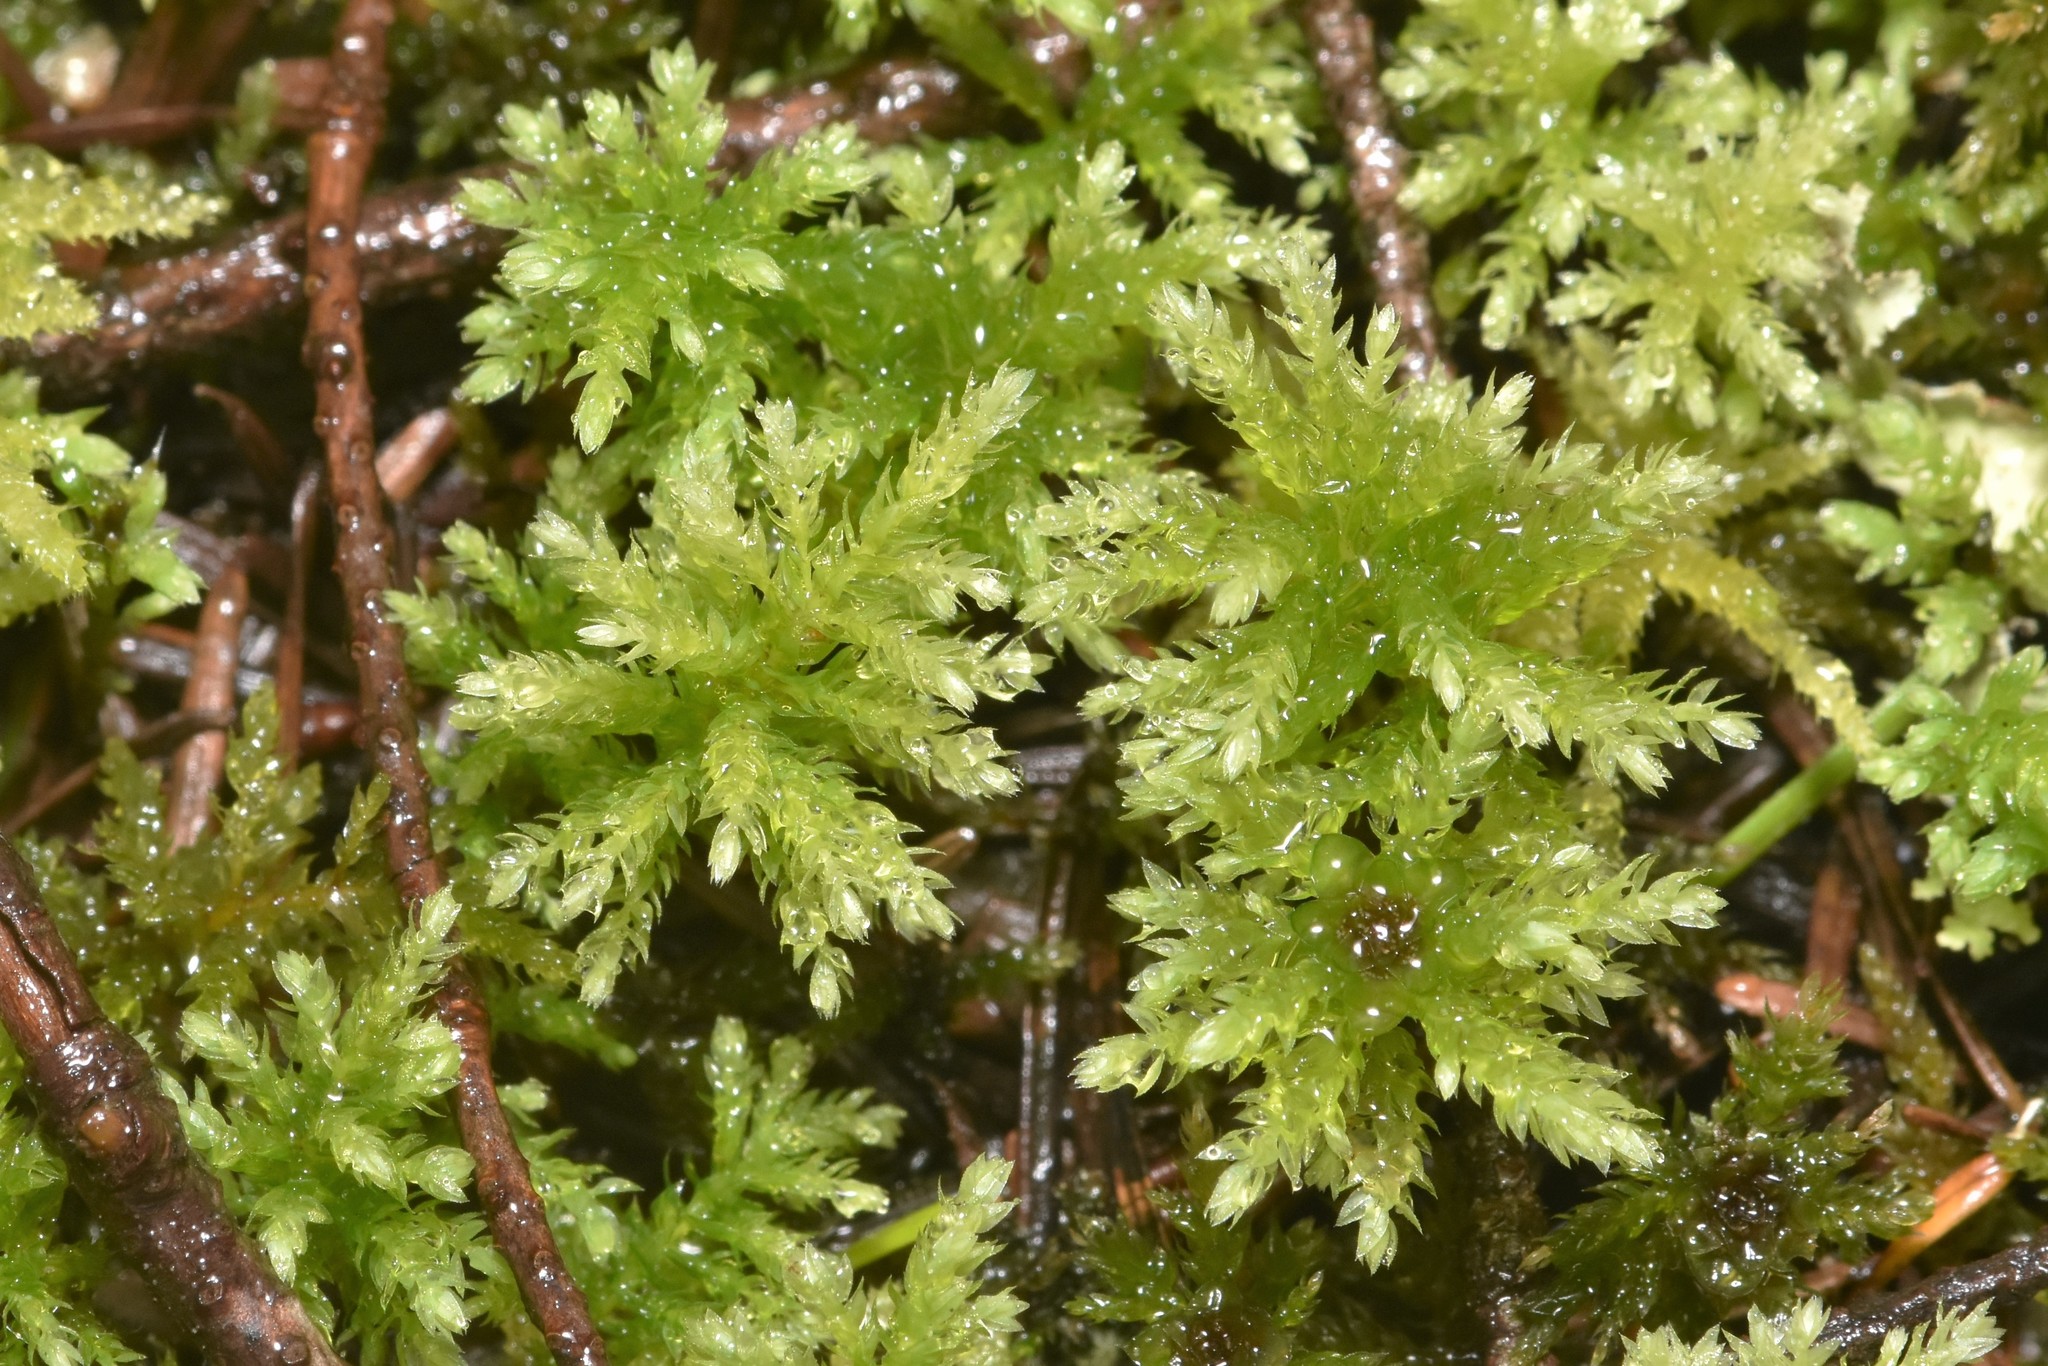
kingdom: Plantae
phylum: Bryophyta
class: Bryopsida
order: Bryales
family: Mniaceae
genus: Leucolepis
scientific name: Leucolepis acanthoneura
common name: Leucolepis umbrella moss
